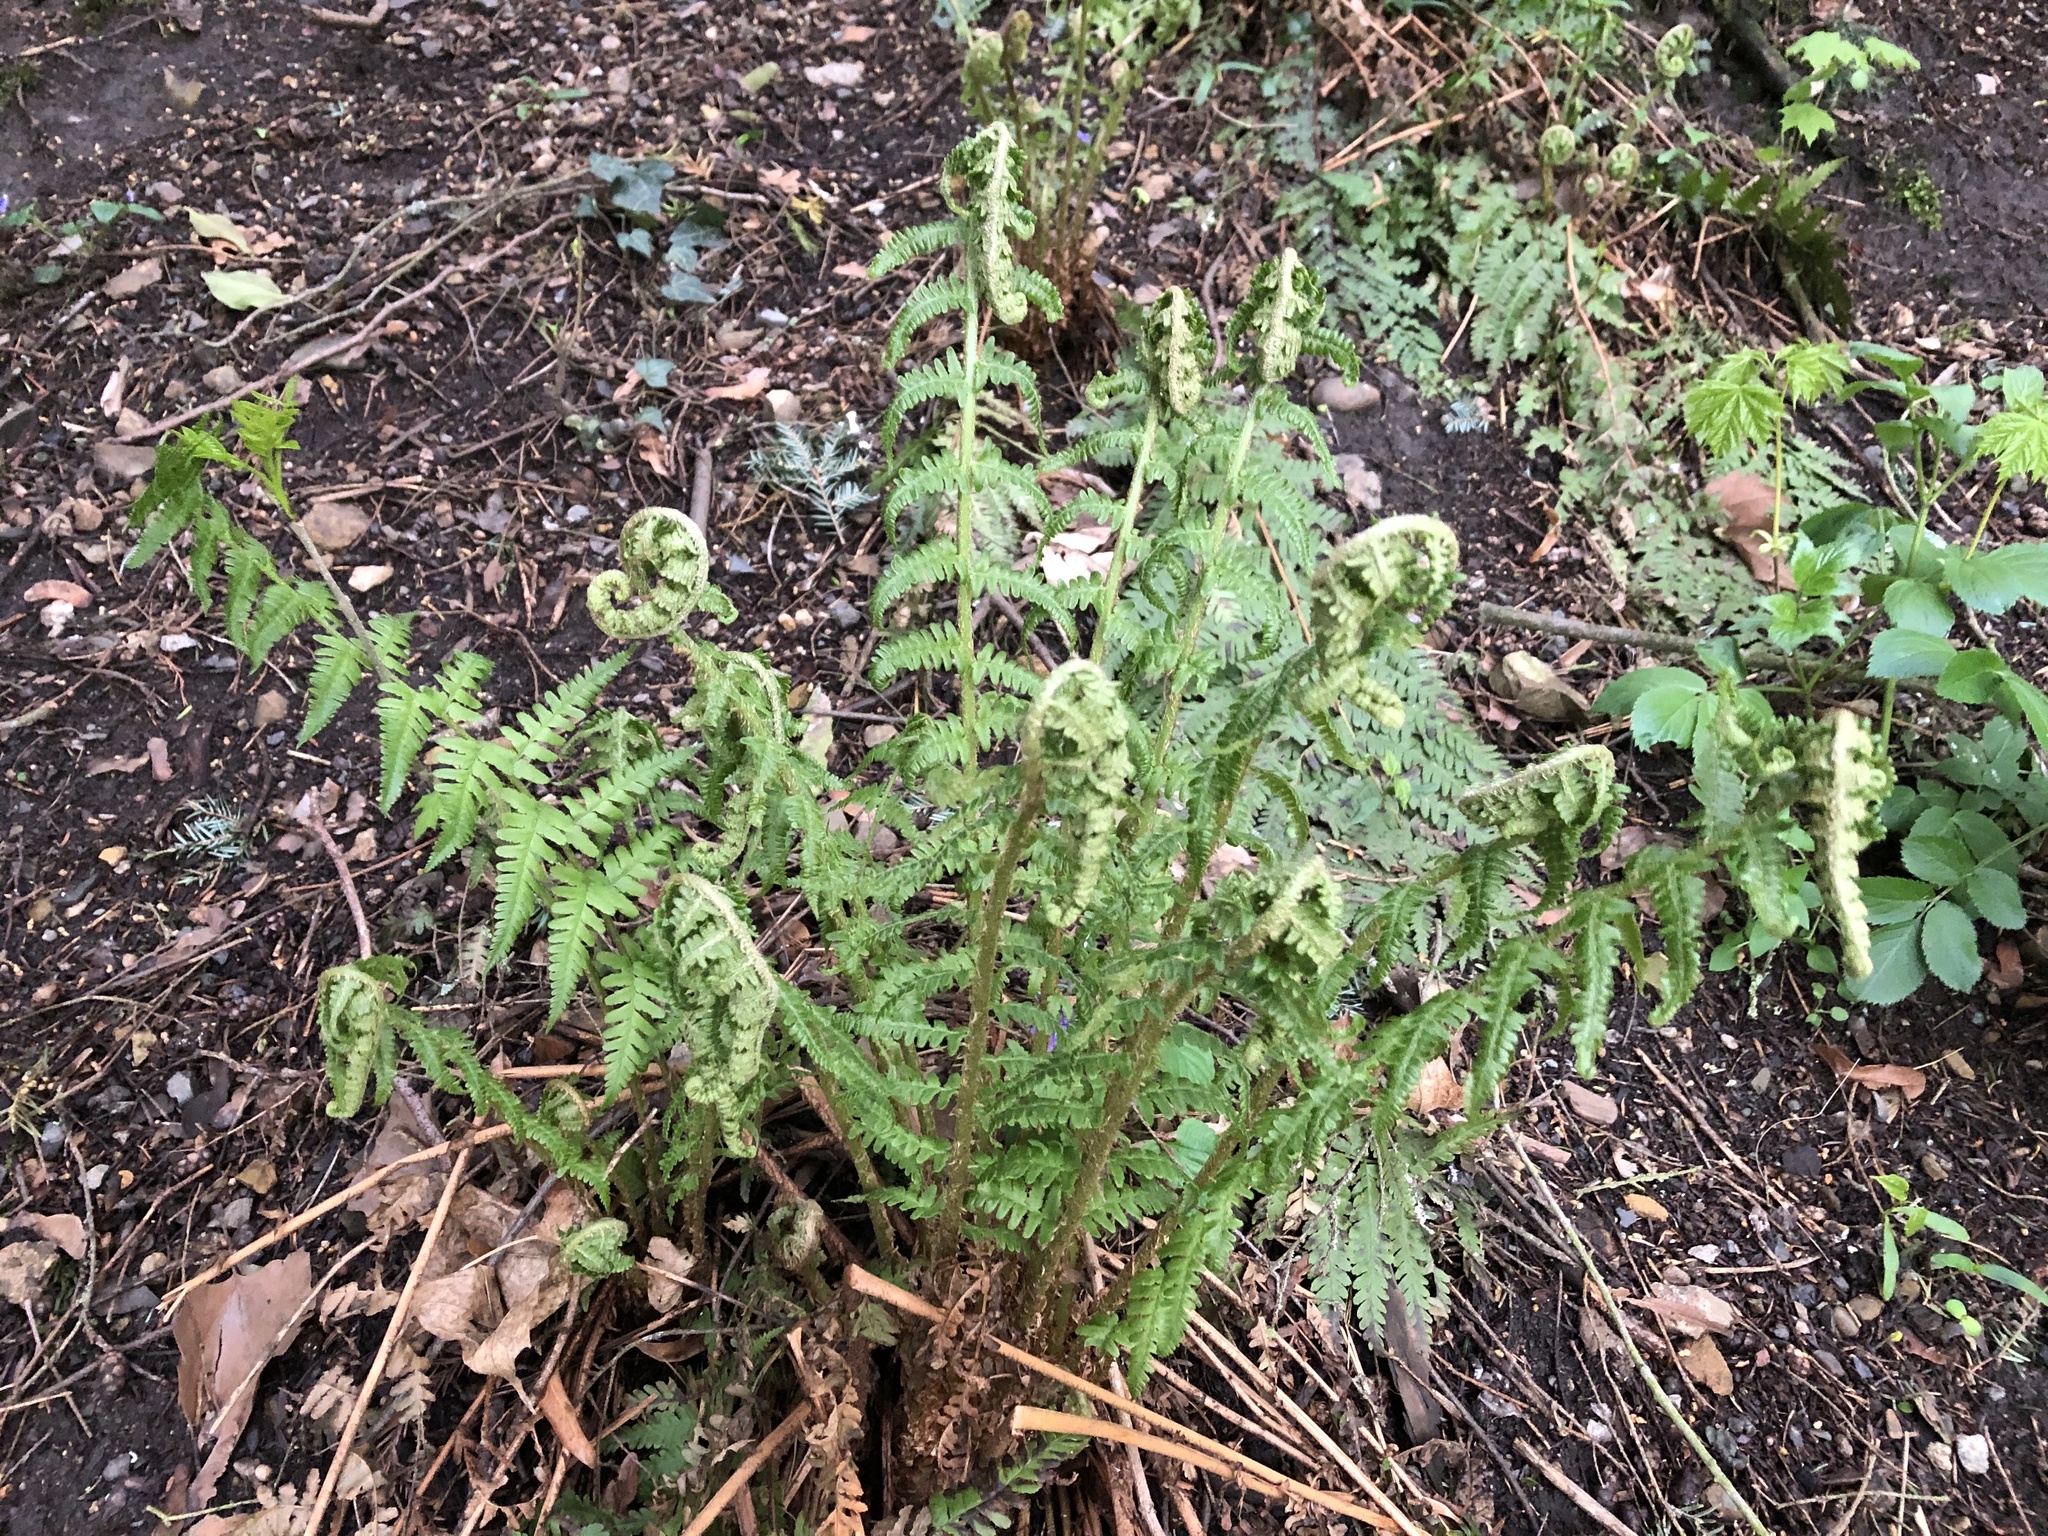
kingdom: Plantae
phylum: Tracheophyta
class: Polypodiopsida
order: Polypodiales
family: Dryopteridaceae
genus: Dryopteris
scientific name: Dryopteris filix-mas
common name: Male fern
